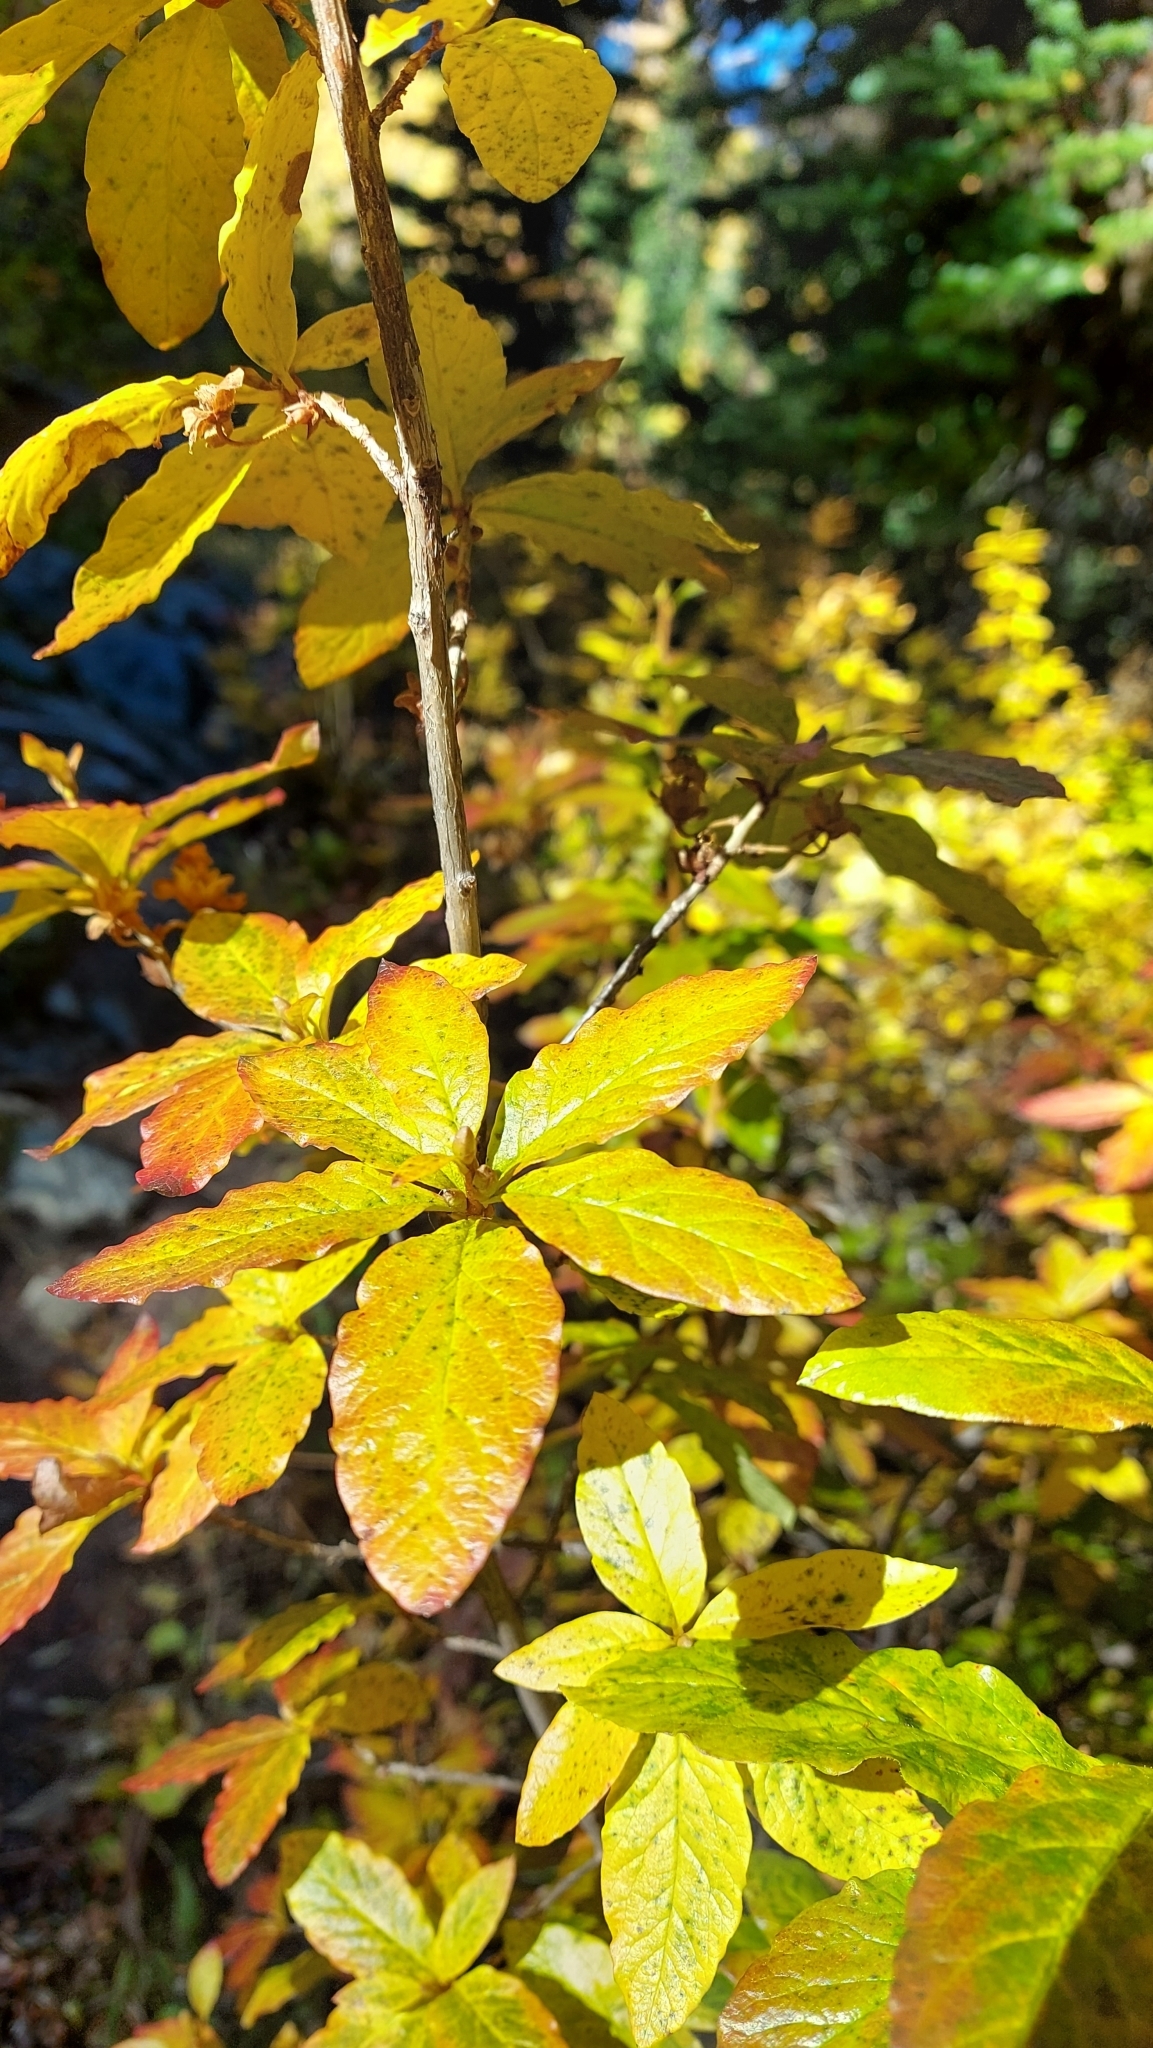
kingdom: Plantae
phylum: Tracheophyta
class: Magnoliopsida
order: Ericales
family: Ericaceae
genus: Rhododendron
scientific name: Rhododendron albiflorum
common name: White rhododendron
